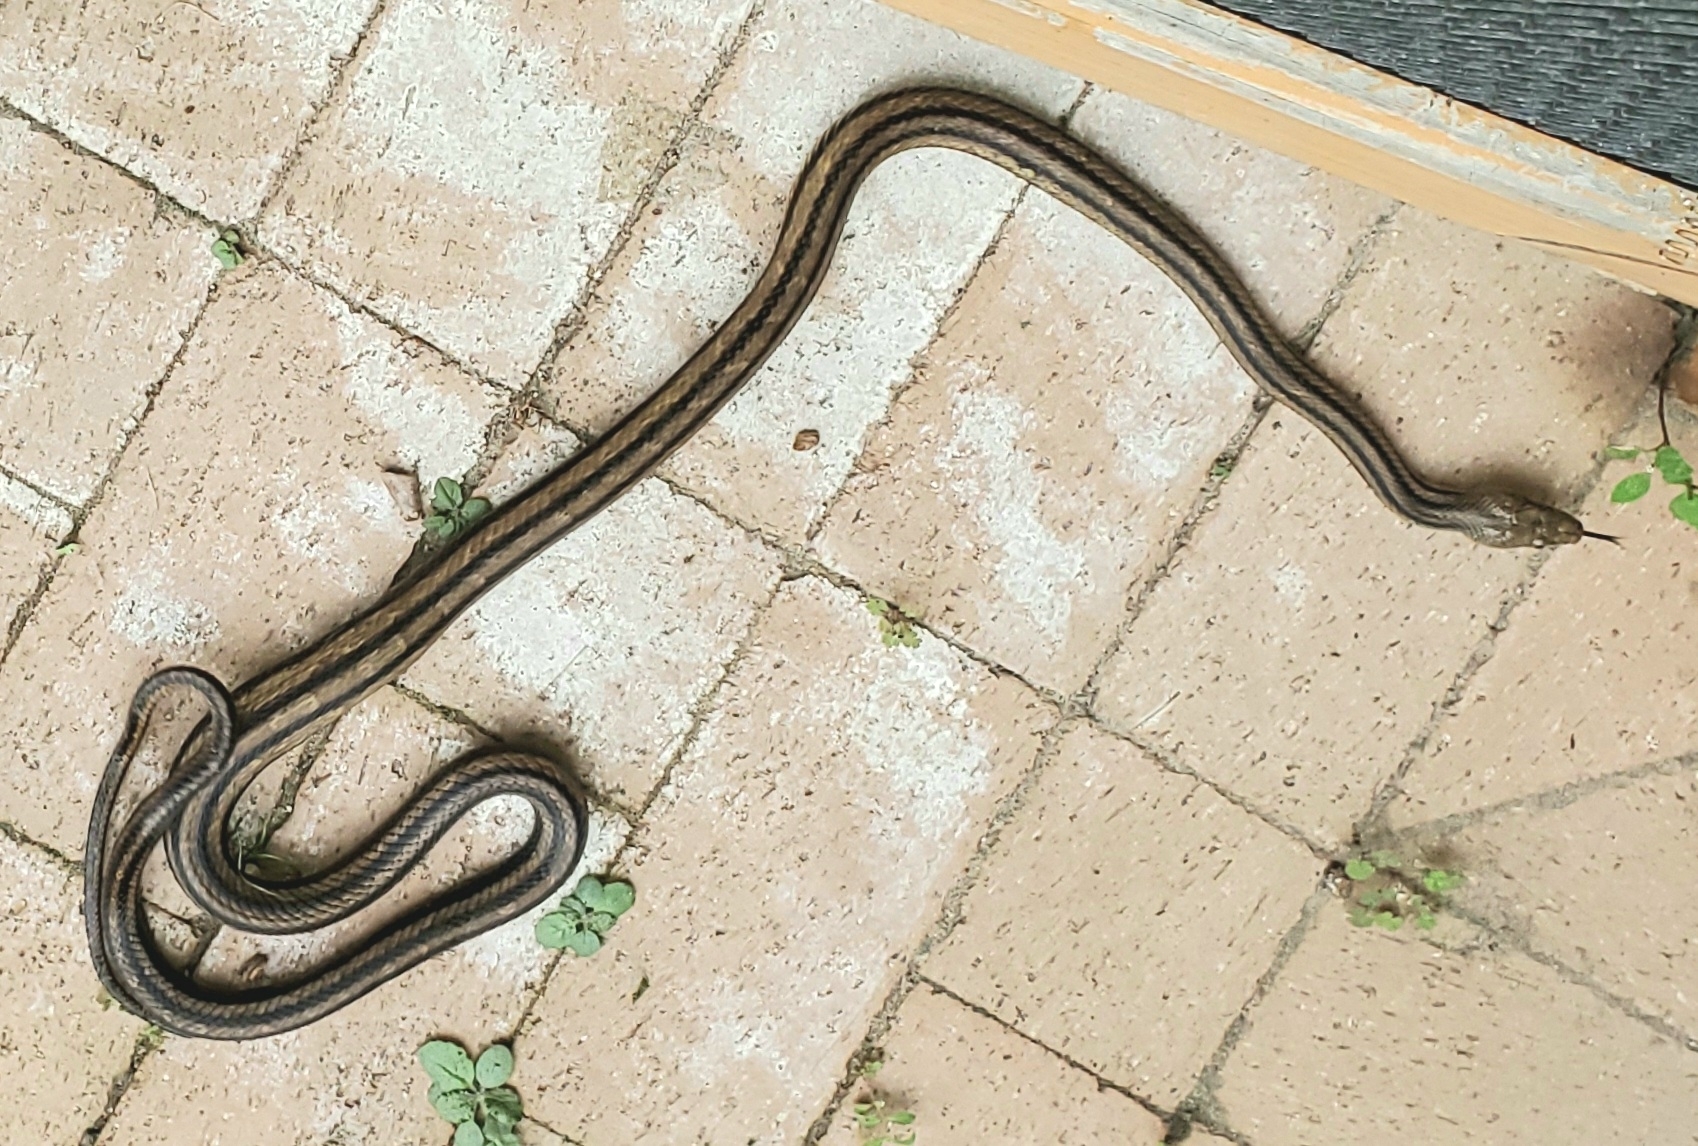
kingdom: Animalia
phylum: Chordata
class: Squamata
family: Colubridae
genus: Pantherophis
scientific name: Pantherophis alleghaniensis
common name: Eastern rat snake
